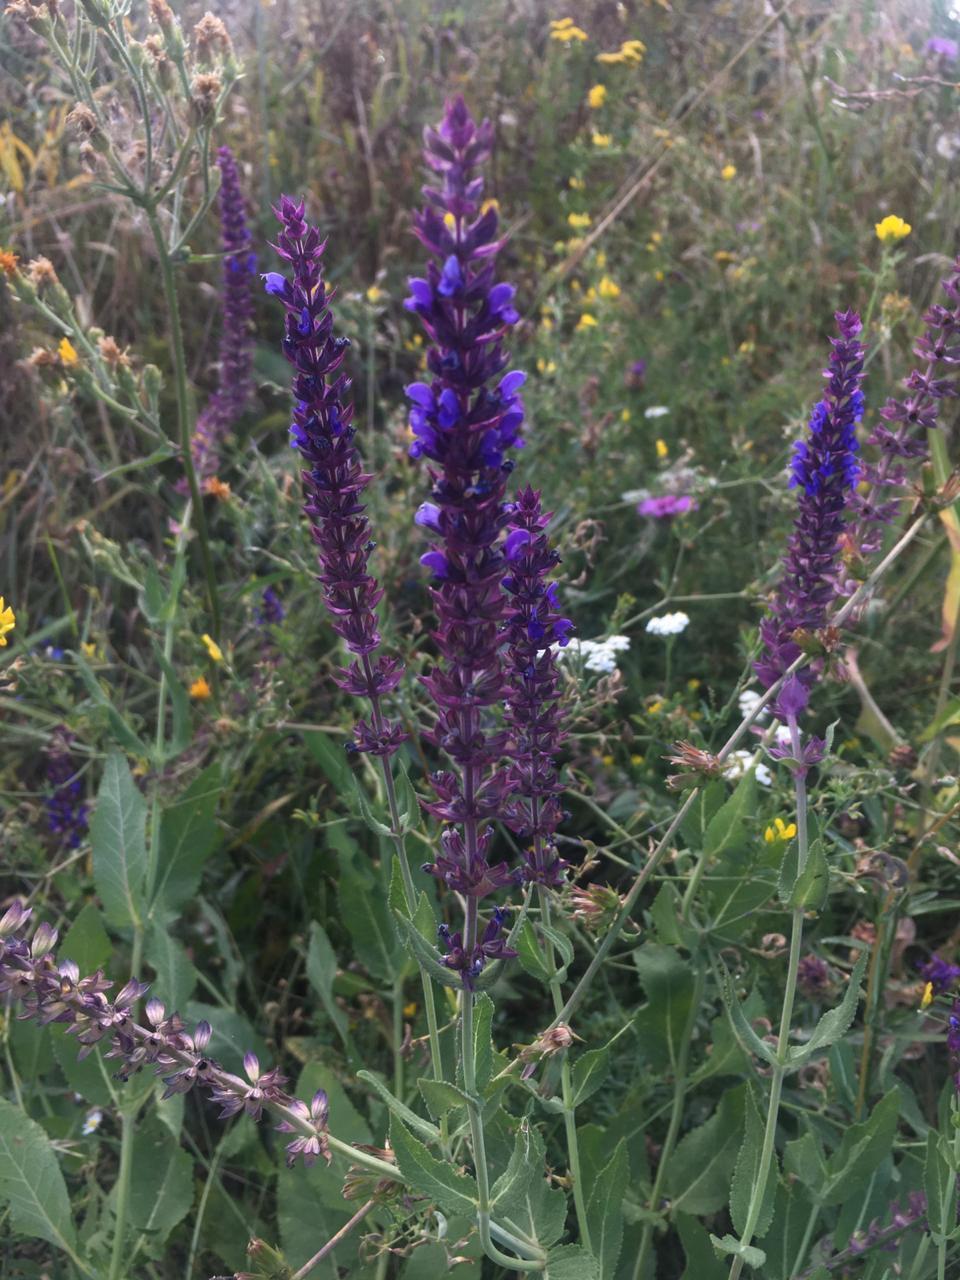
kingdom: Plantae
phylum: Tracheophyta
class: Magnoliopsida
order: Lamiales
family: Lamiaceae
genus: Salvia
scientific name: Salvia nemorosa
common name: Balkan clary
